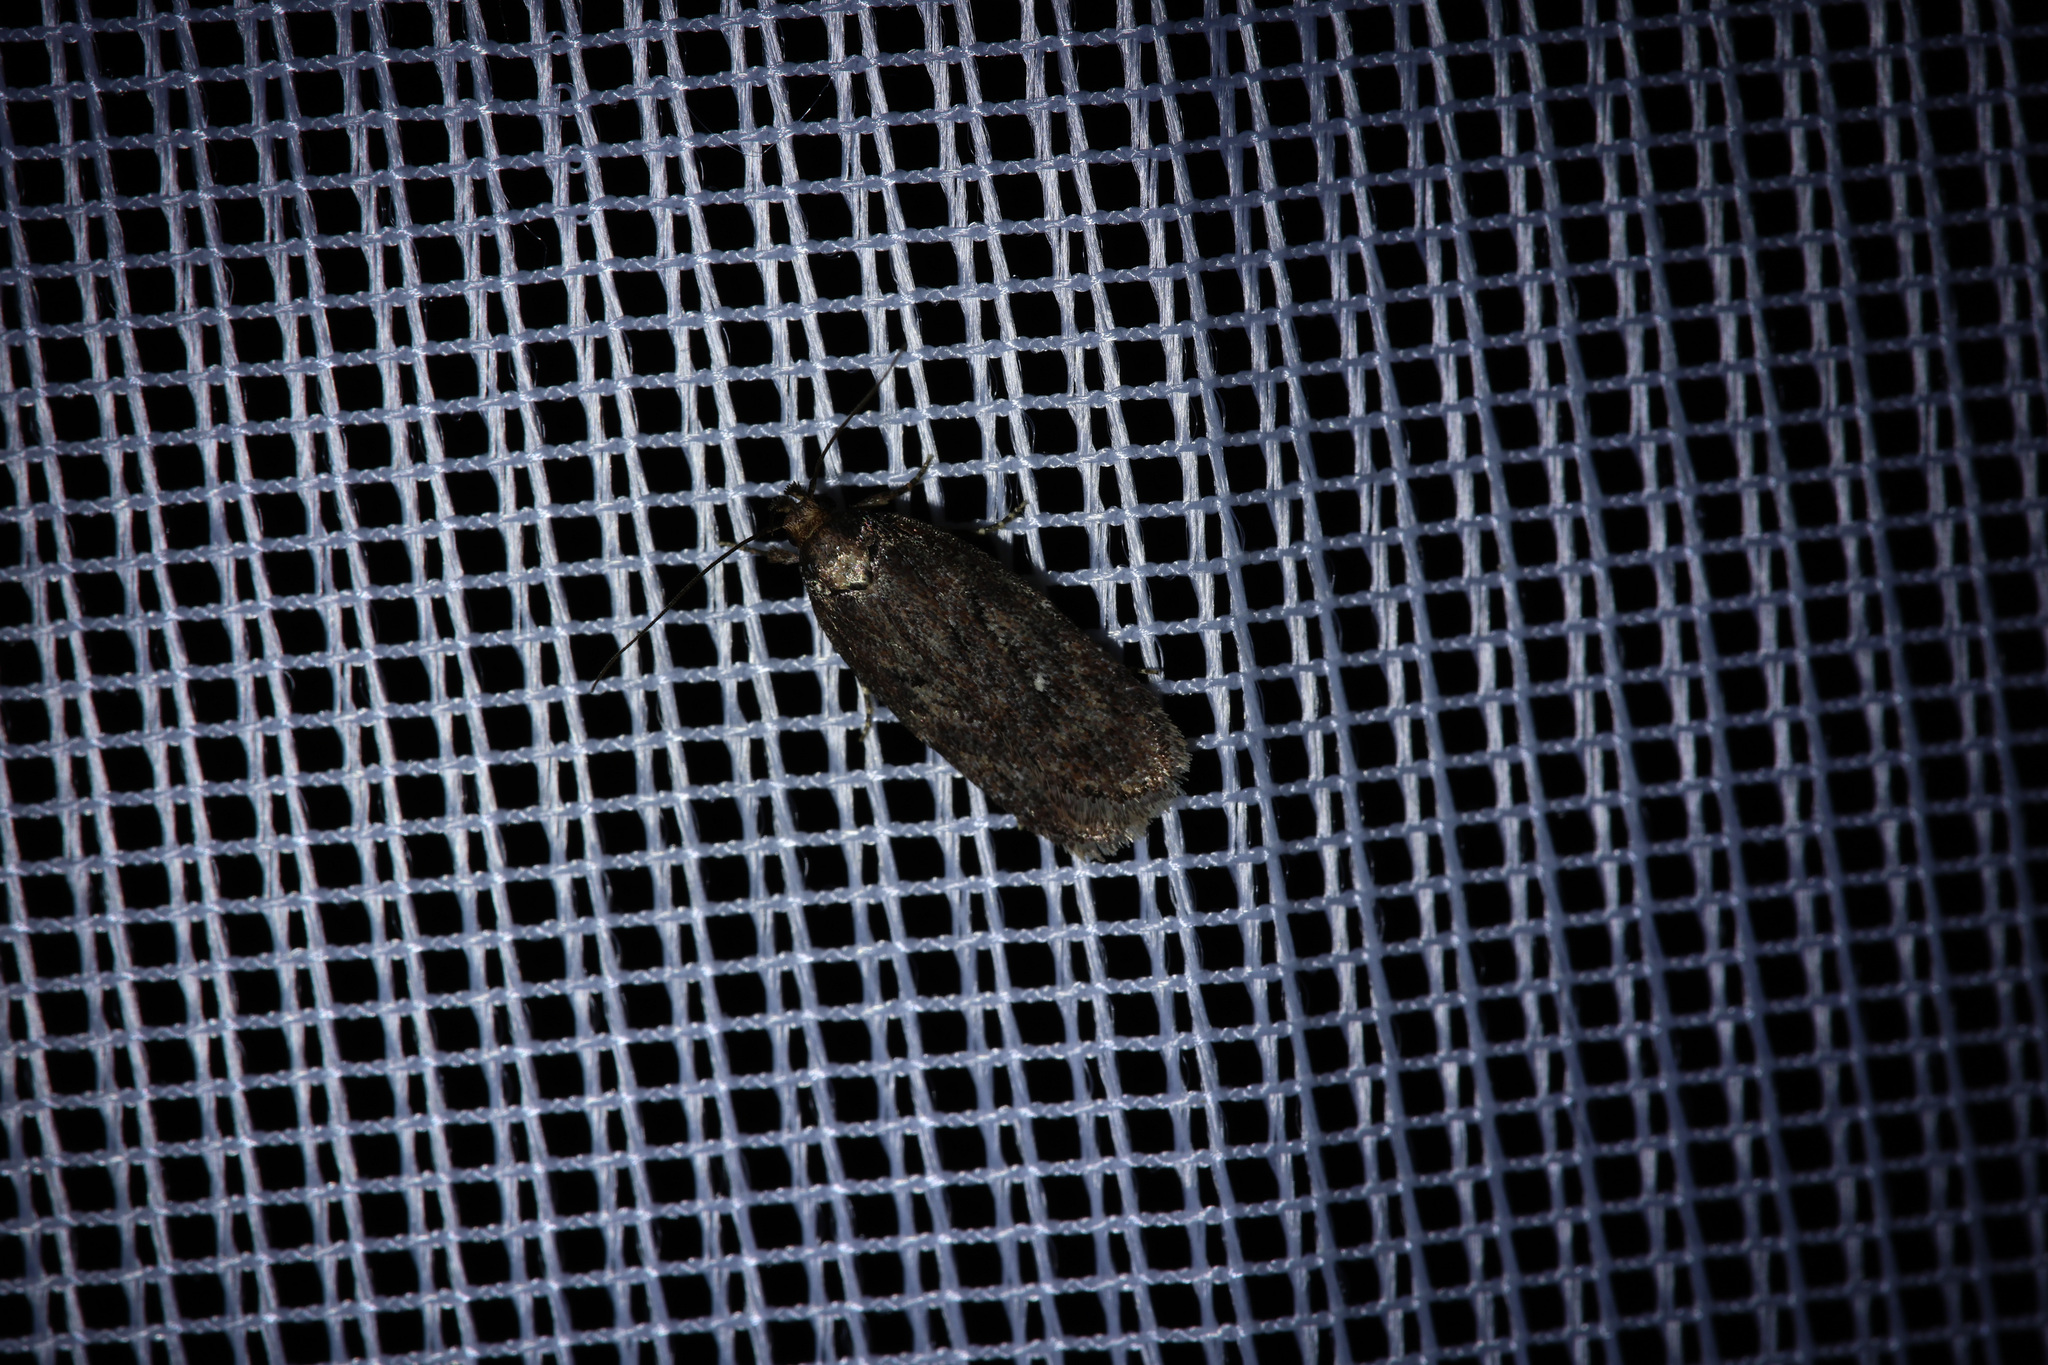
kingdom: Animalia
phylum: Arthropoda
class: Insecta
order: Lepidoptera
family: Oecophoridae
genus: Hofmannophila
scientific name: Hofmannophila pseudospretella
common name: Brown house moth
